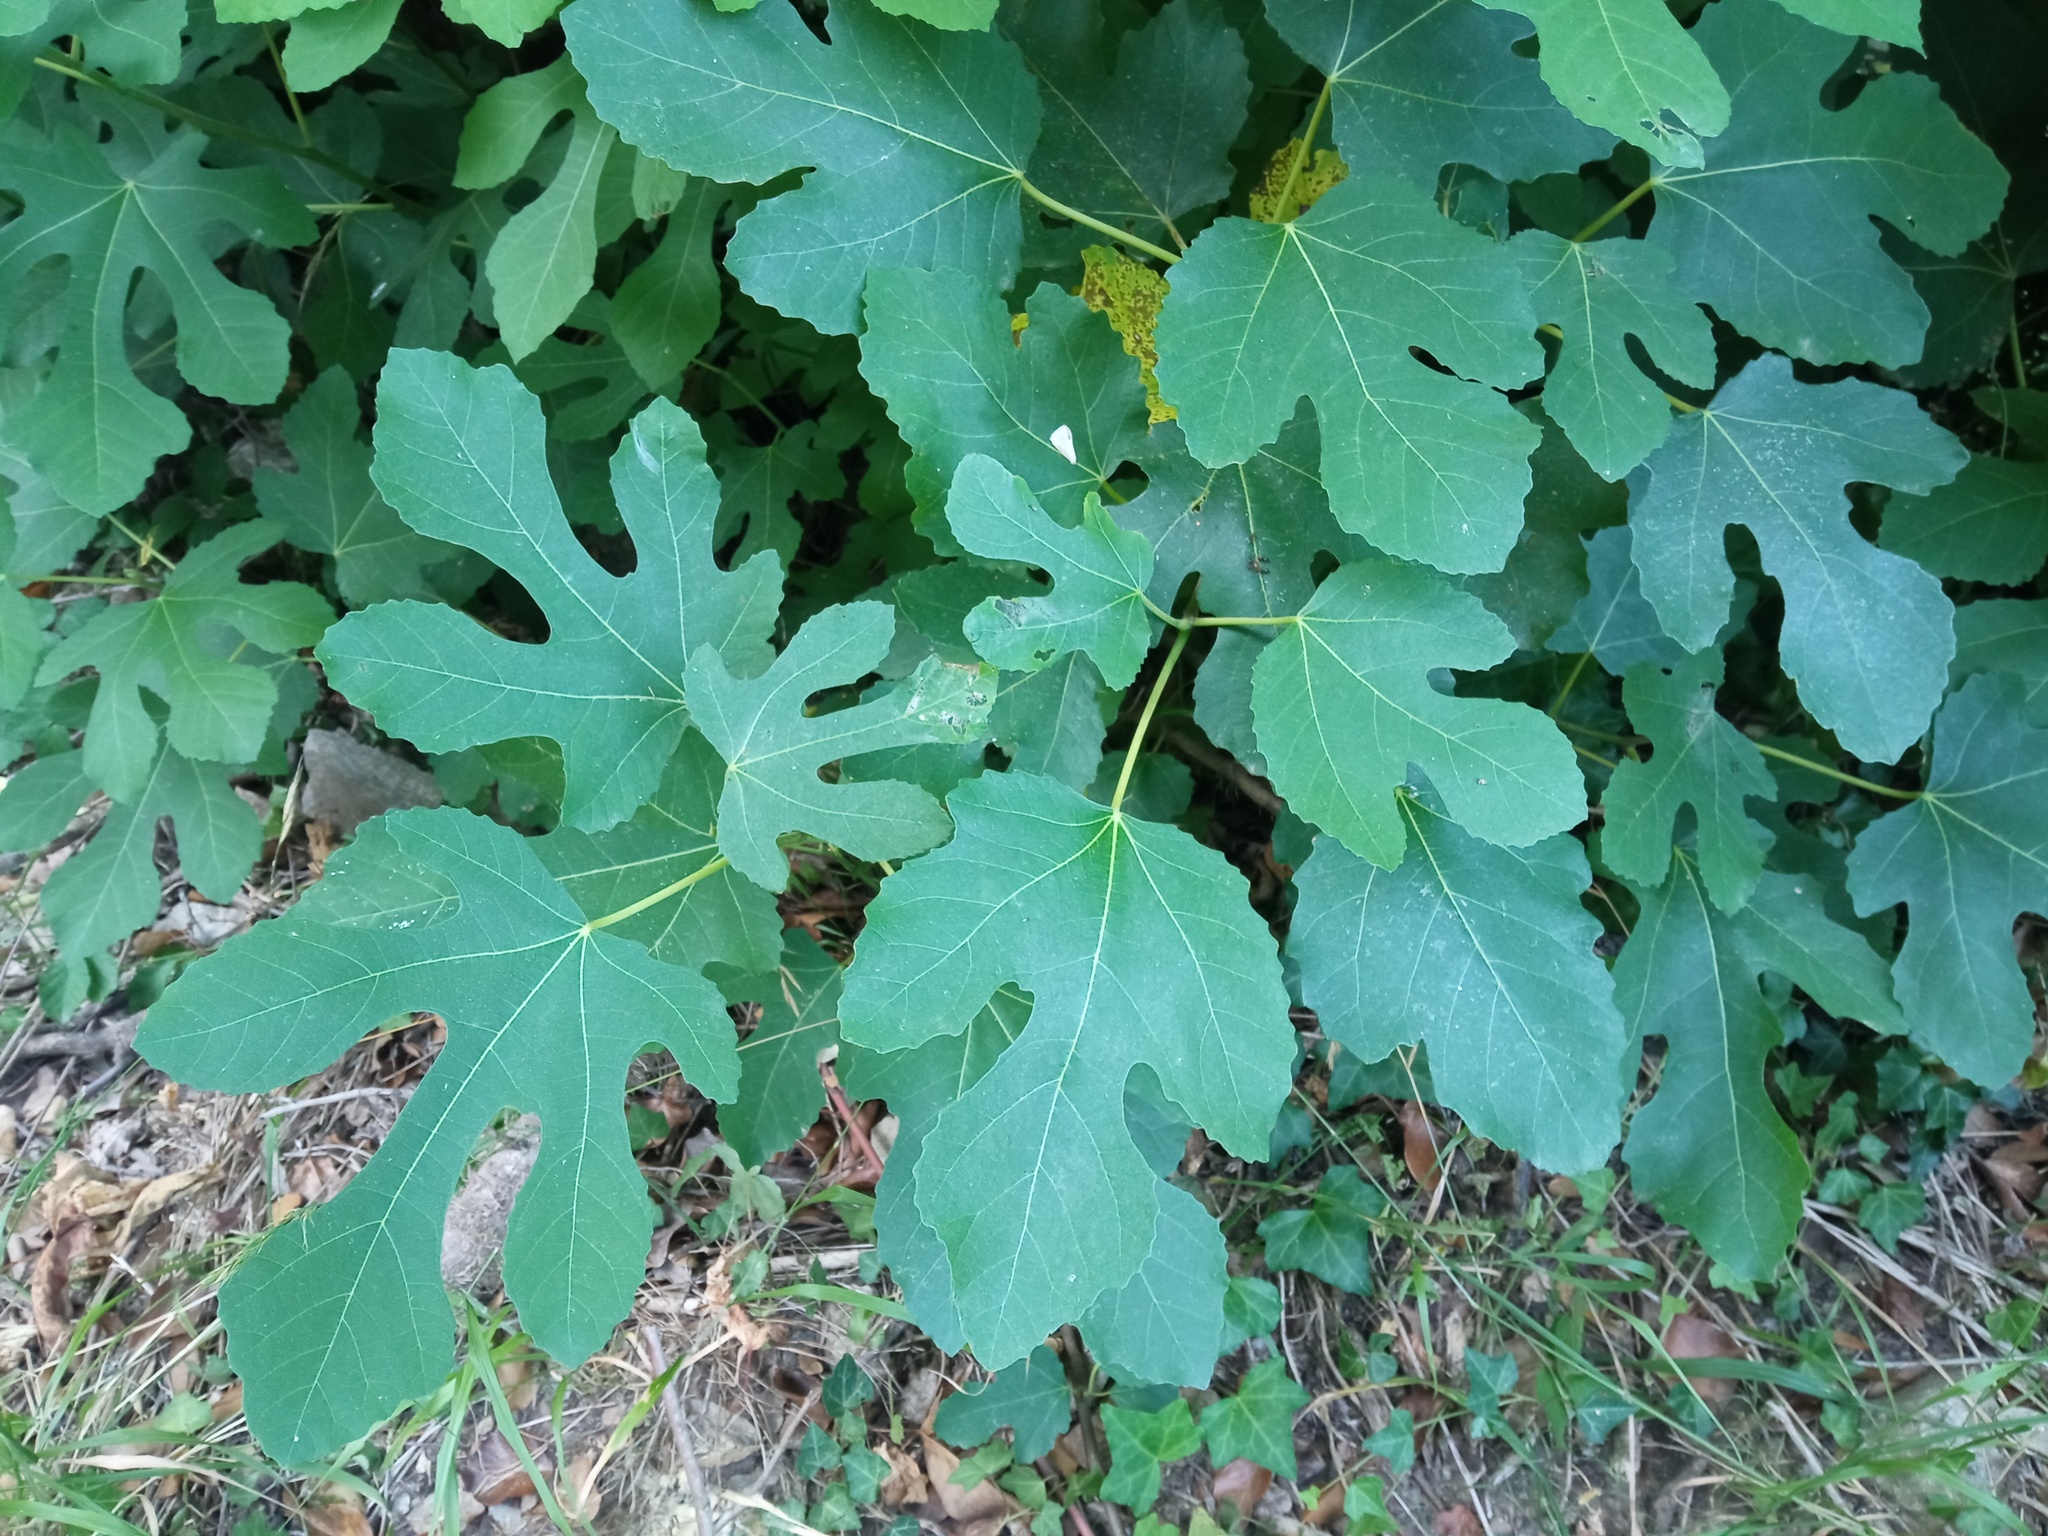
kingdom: Plantae
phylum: Tracheophyta
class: Magnoliopsida
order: Rosales
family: Moraceae
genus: Ficus
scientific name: Ficus carica
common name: Fig
